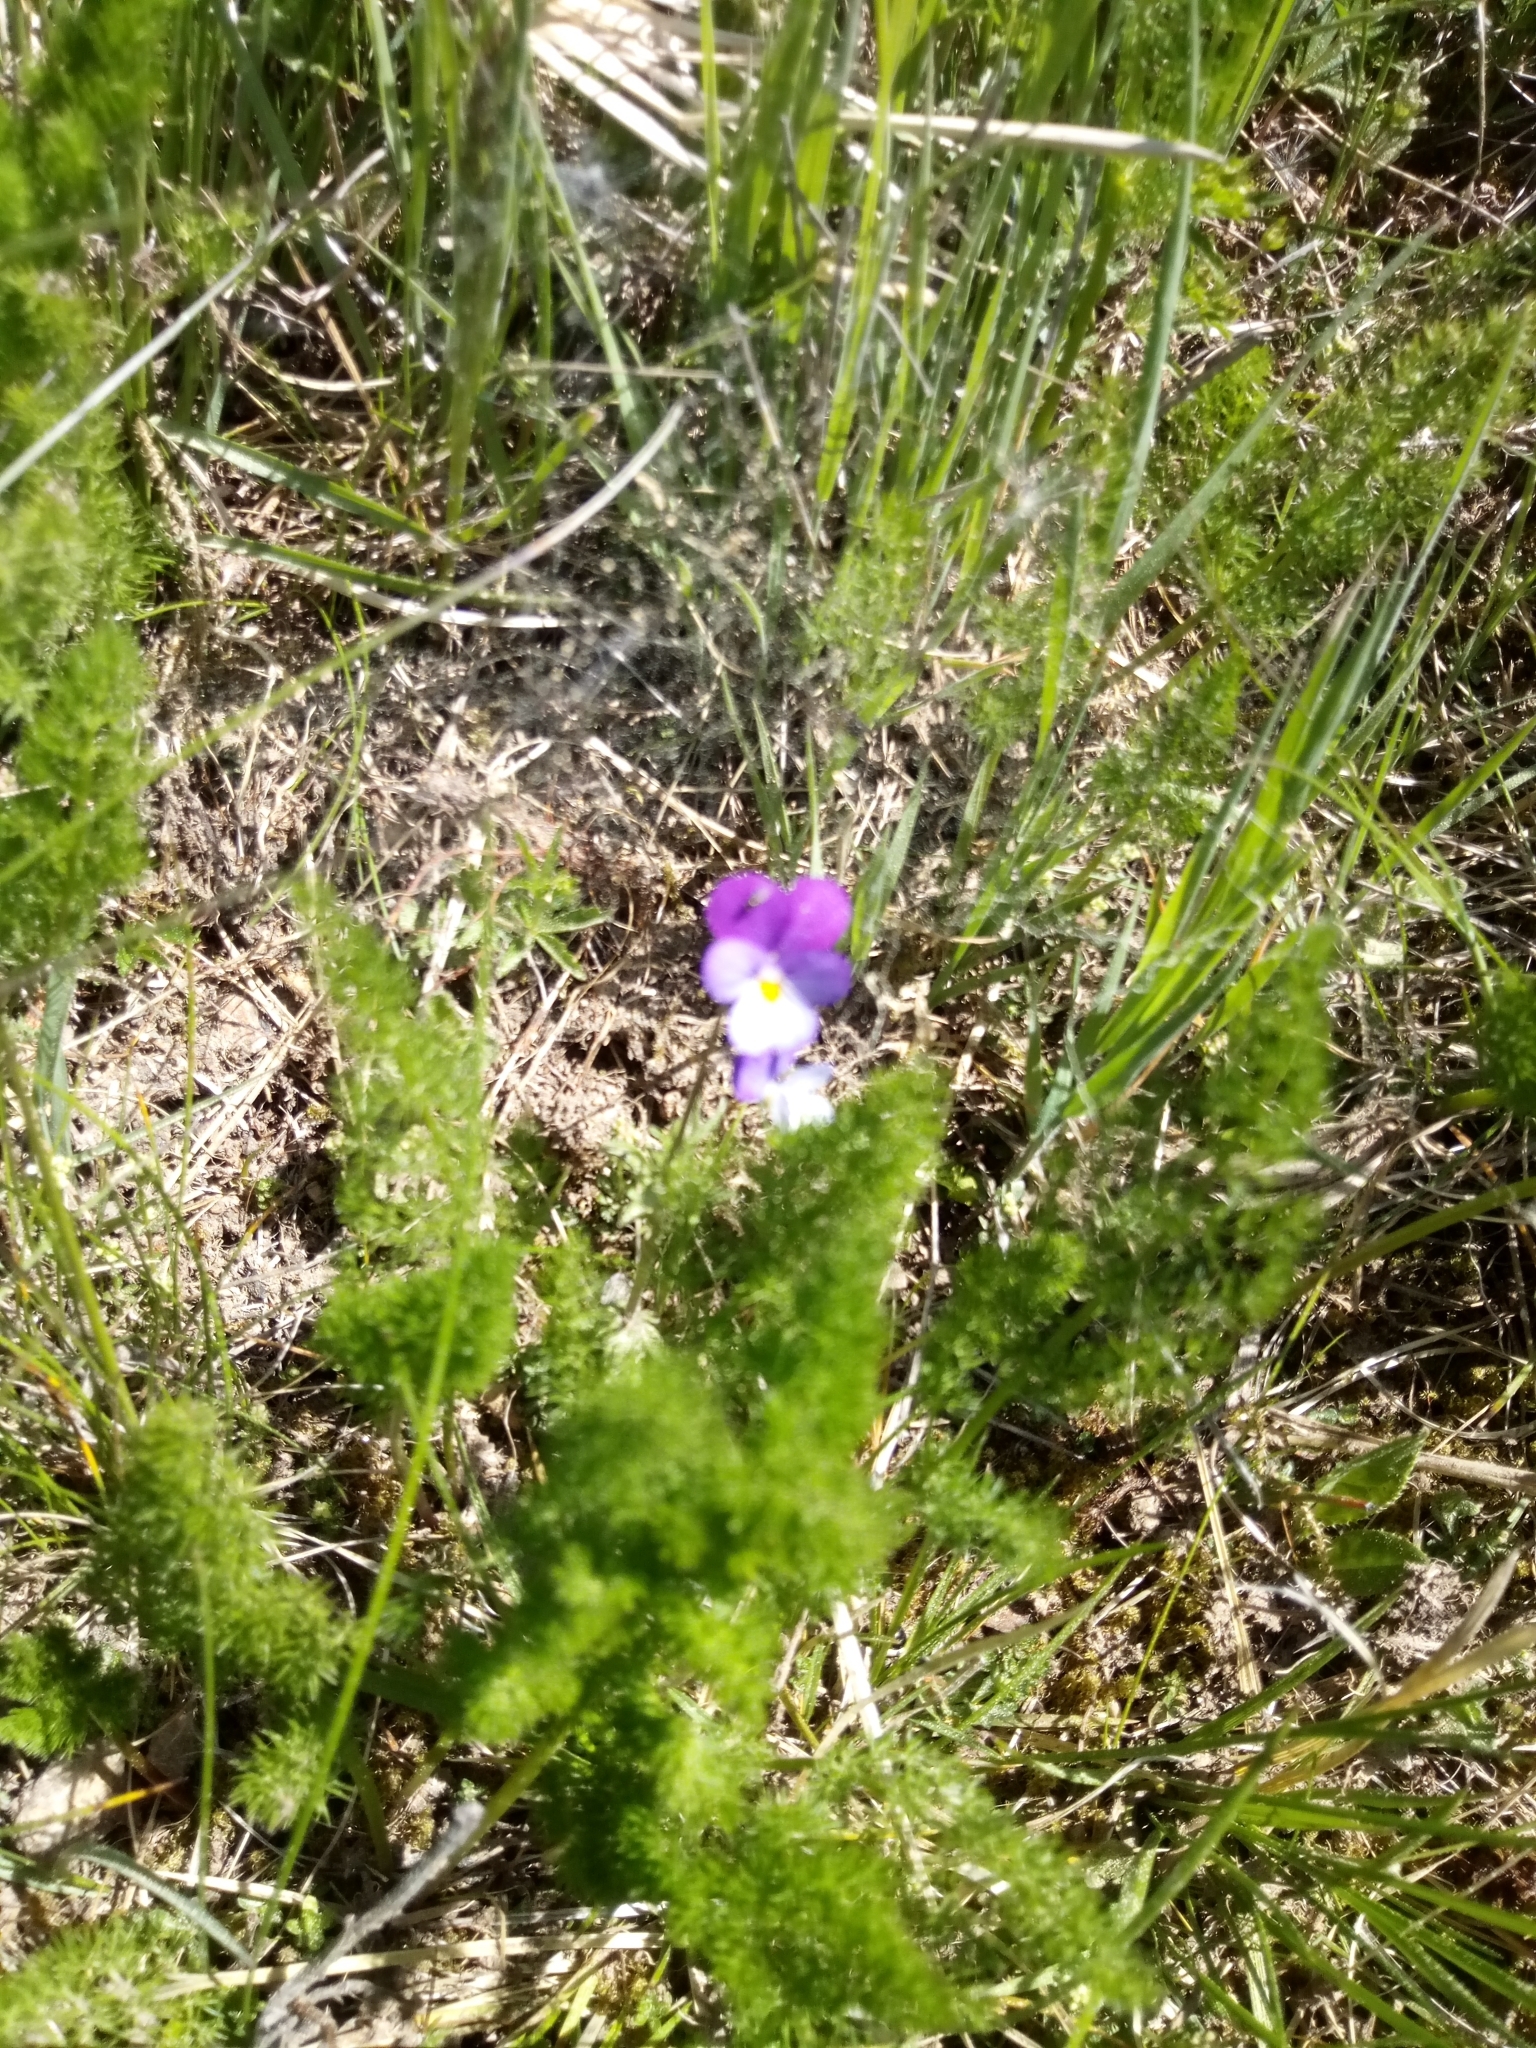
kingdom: Plantae
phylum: Tracheophyta
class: Magnoliopsida
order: Malpighiales
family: Violaceae
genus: Viola
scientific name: Viola tricolor
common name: Pansy
